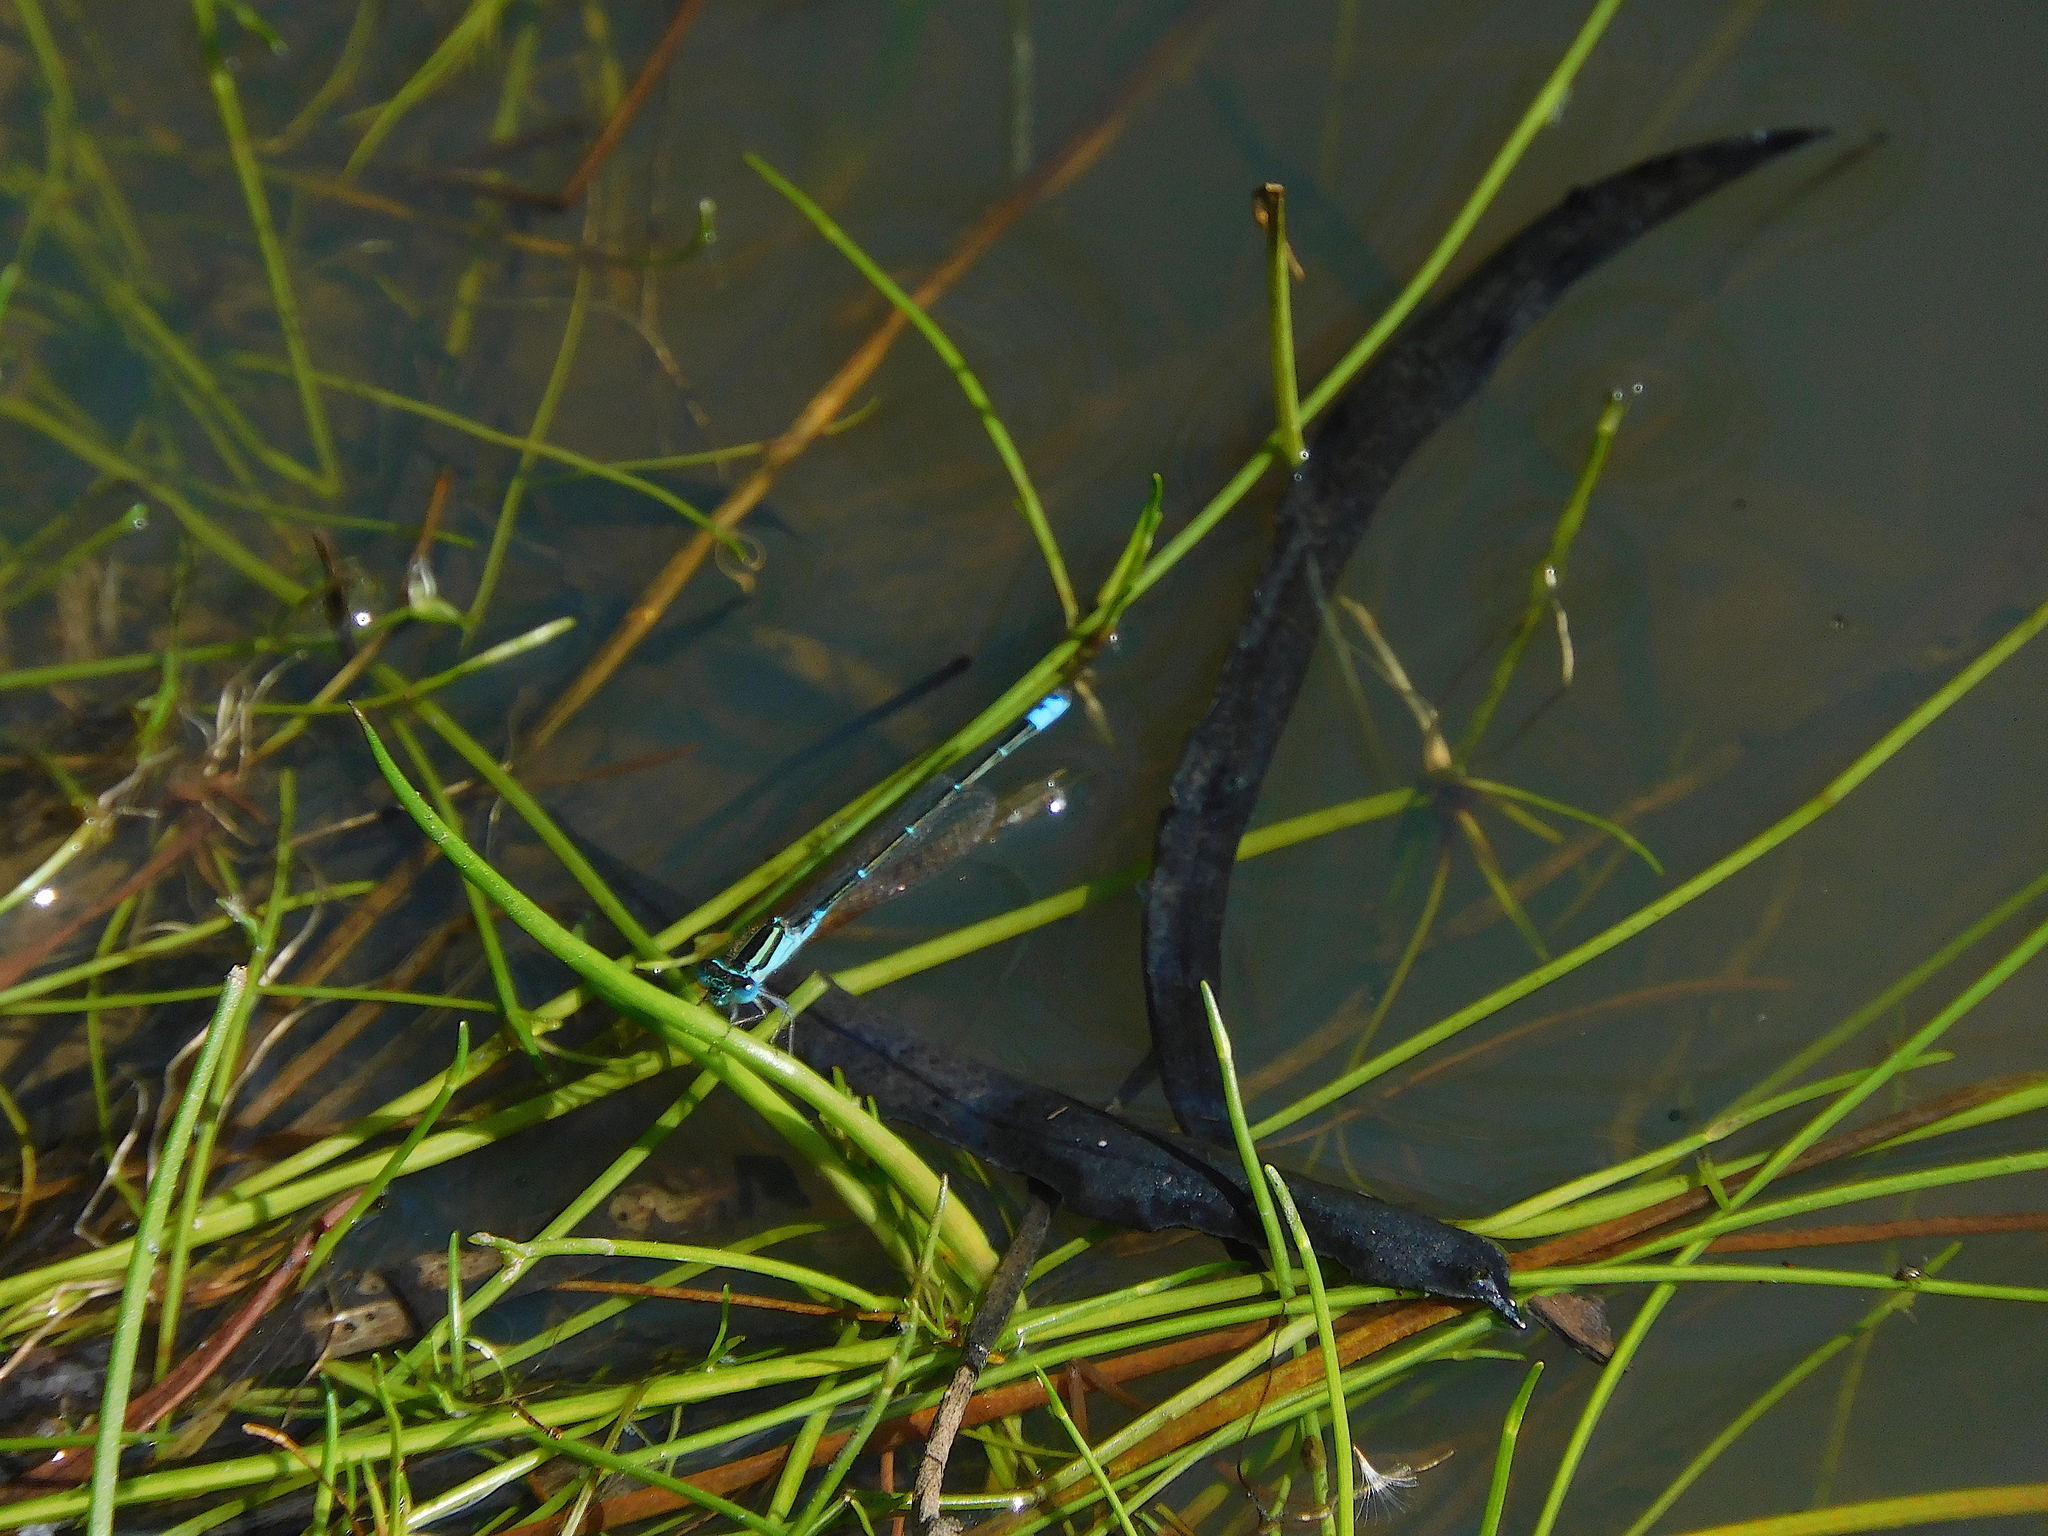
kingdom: Animalia
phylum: Arthropoda
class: Insecta
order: Odonata
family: Coenagrionidae
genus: Austroagrion
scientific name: Austroagrion watsoni
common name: Eastern billabongfly
